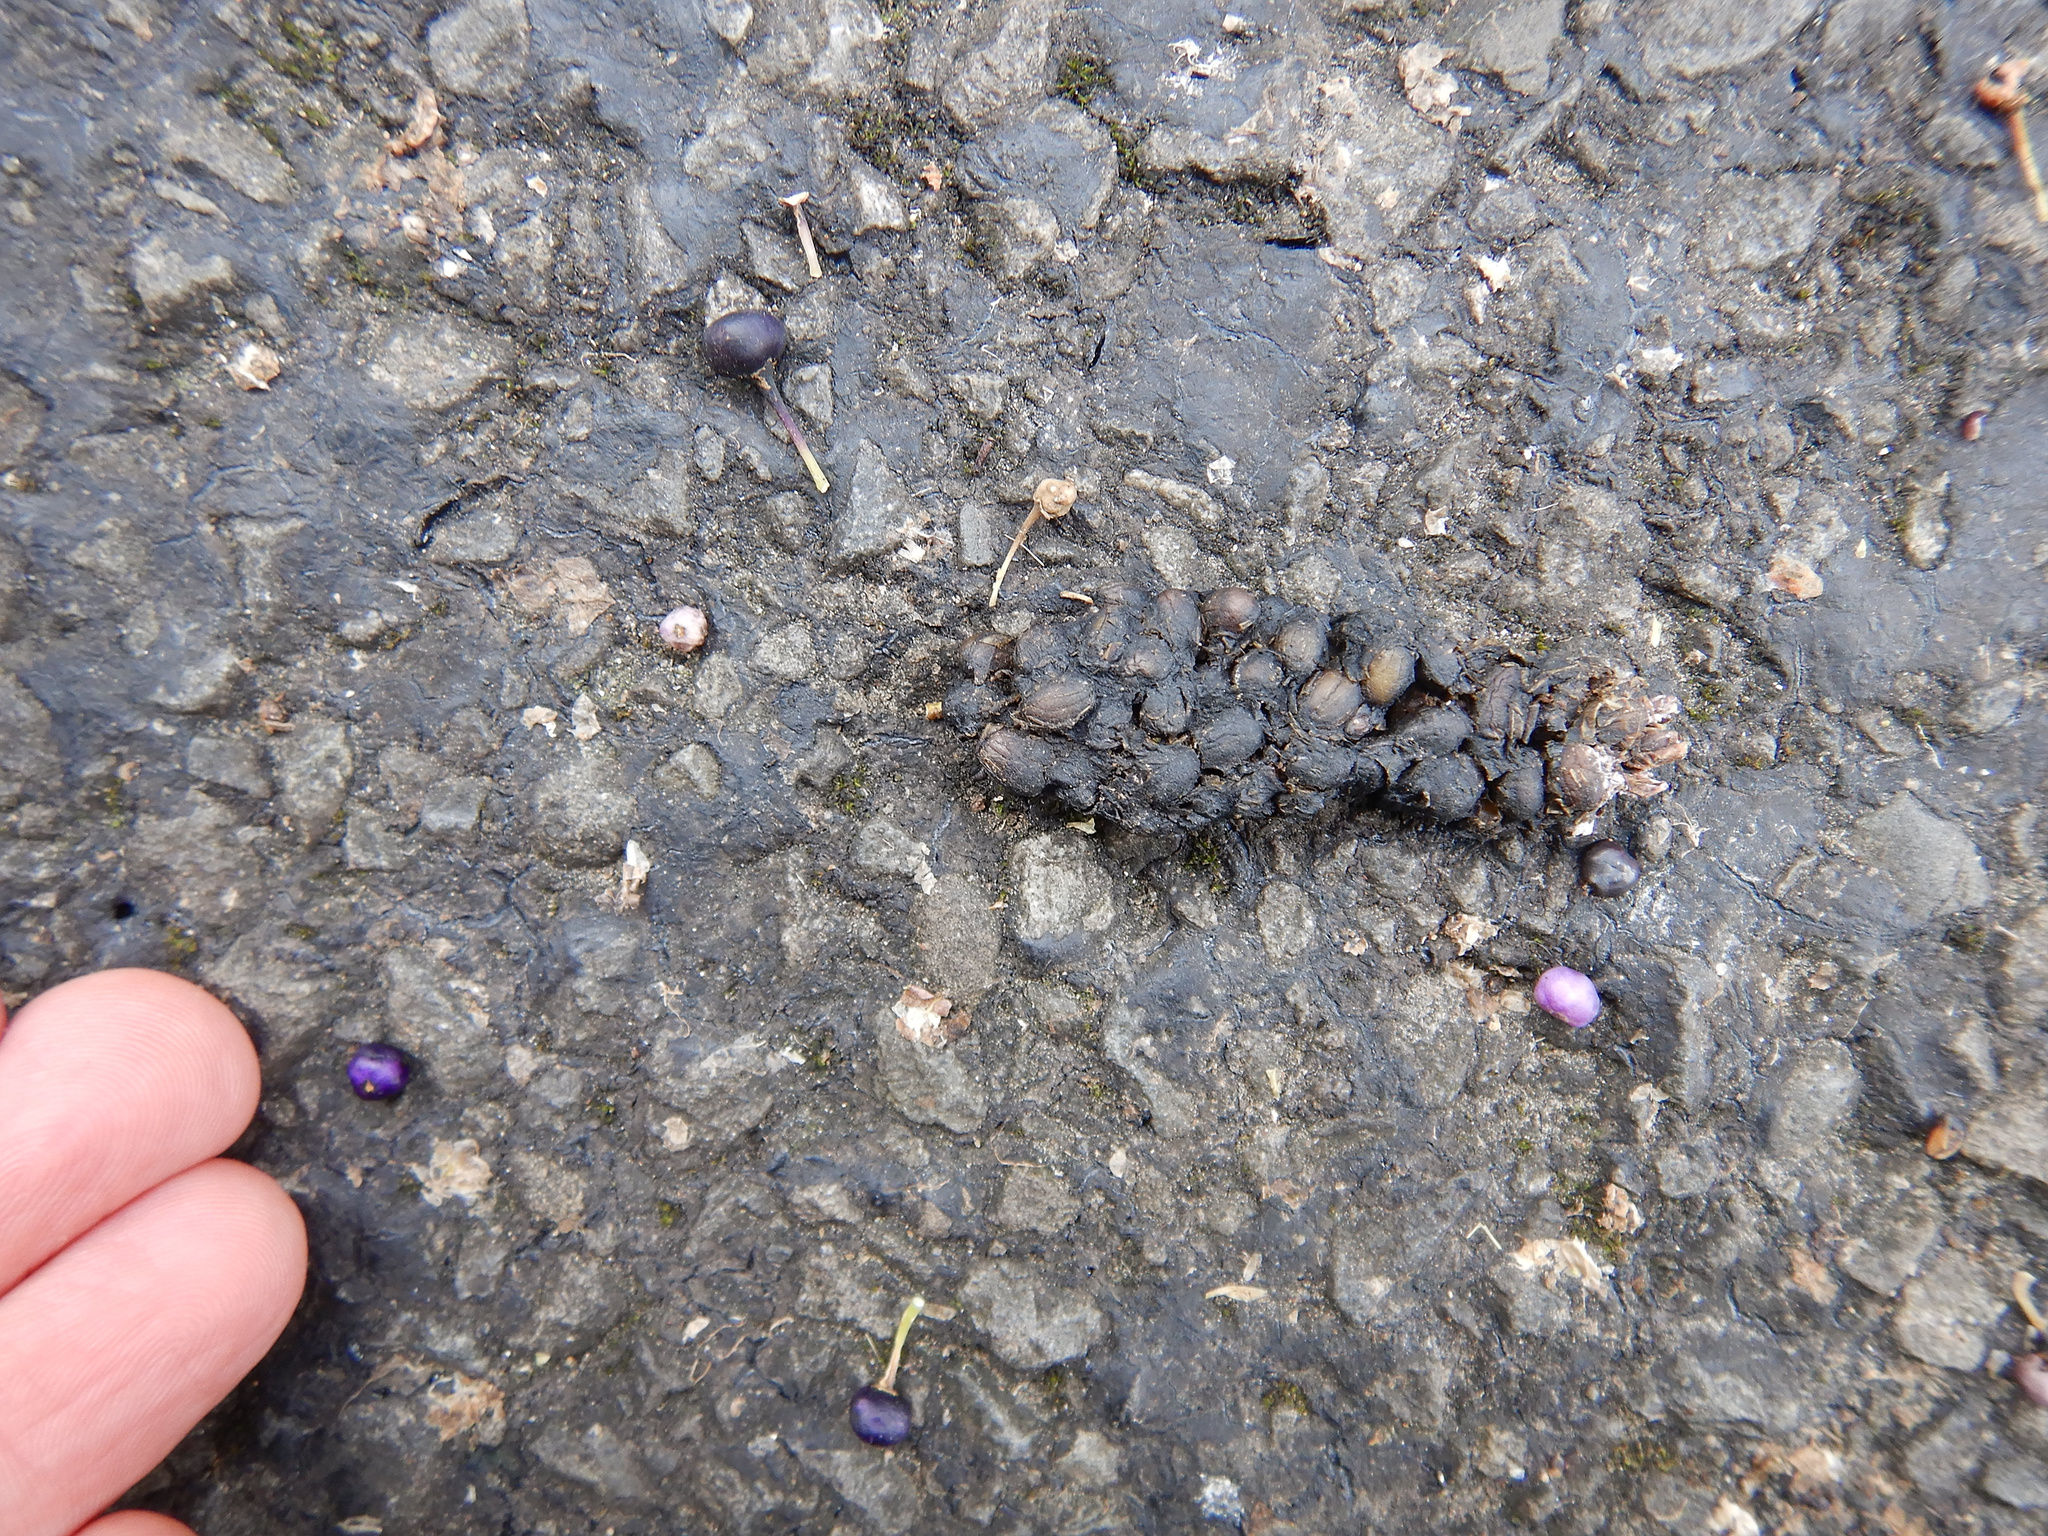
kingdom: Animalia
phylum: Chordata
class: Aves
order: Columbiformes
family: Columbidae
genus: Hemiphaga
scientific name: Hemiphaga novaeseelandiae
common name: New zealand pigeon
